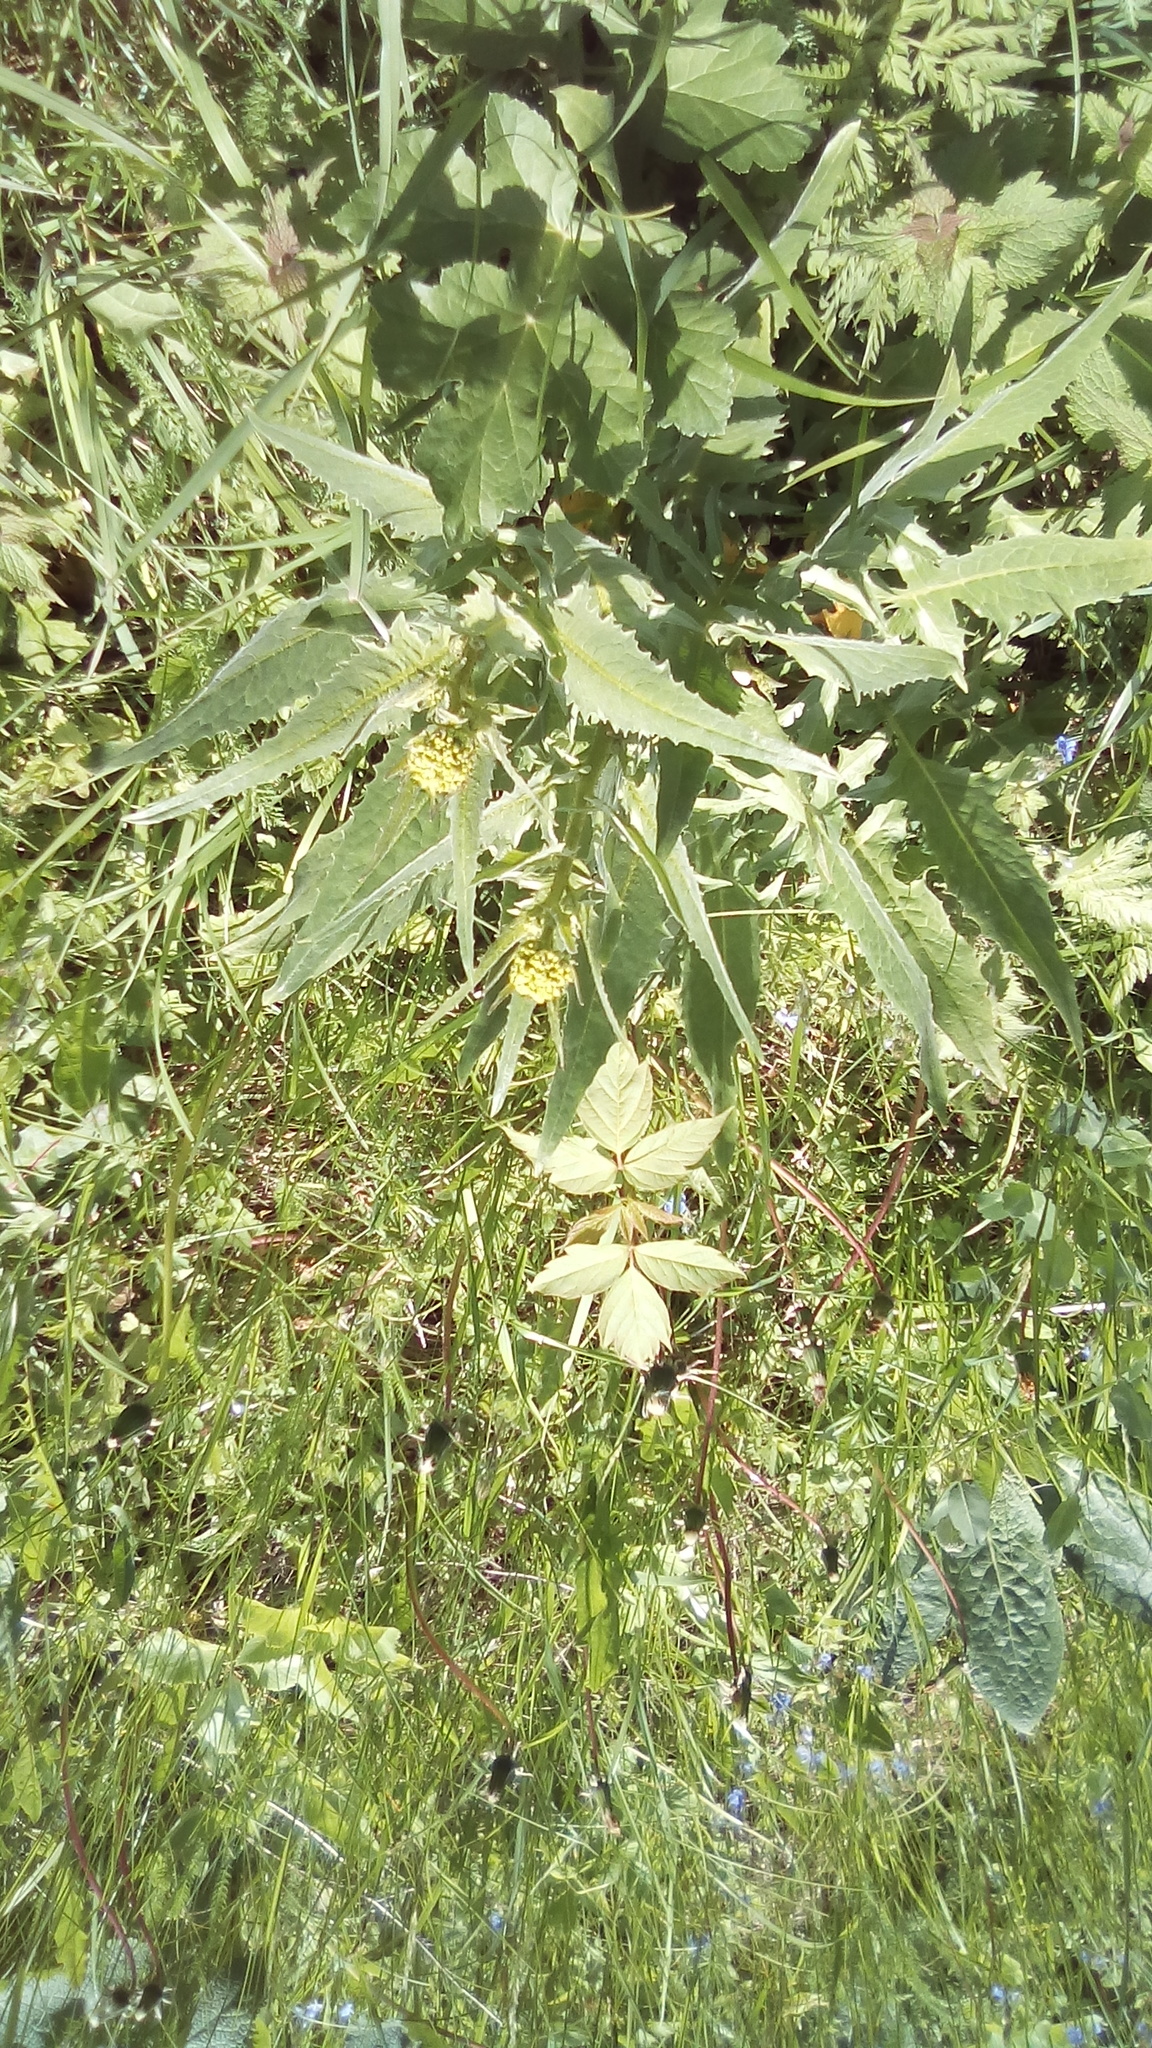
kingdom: Plantae
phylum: Tracheophyta
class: Magnoliopsida
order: Brassicales
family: Brassicaceae
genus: Bunias
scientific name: Bunias orientalis
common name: Warty-cabbage
